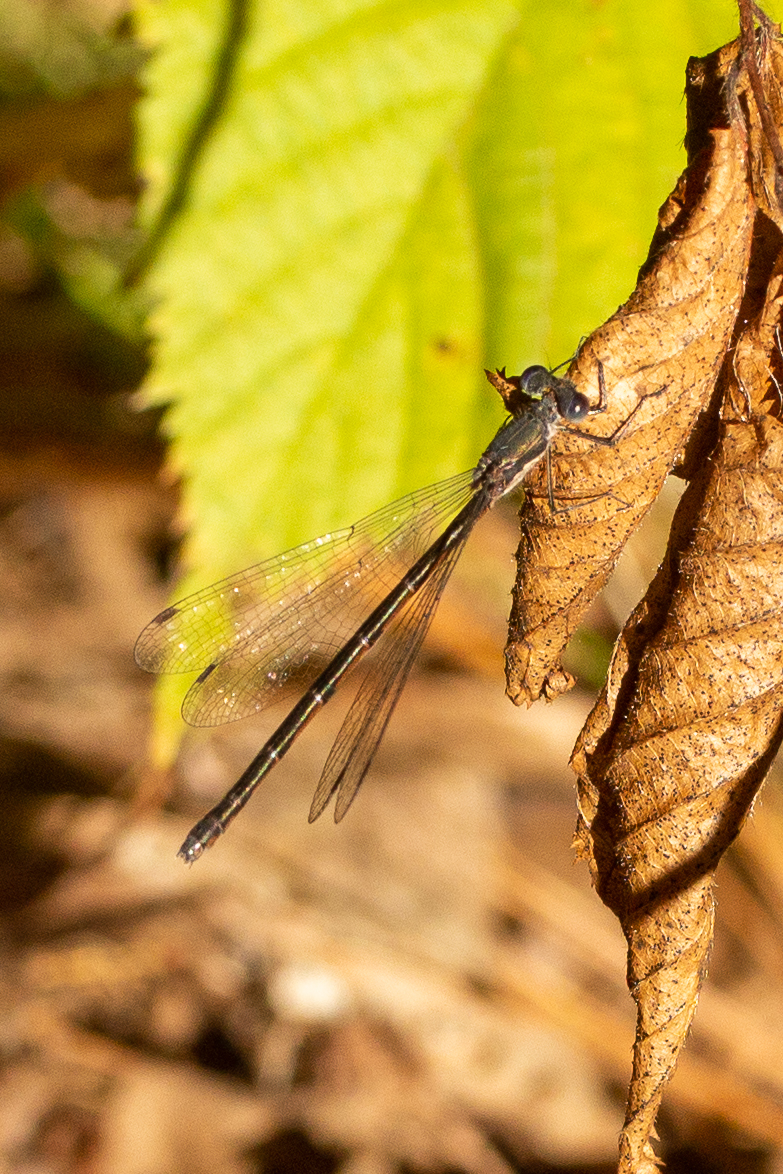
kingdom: Animalia
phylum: Arthropoda
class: Insecta
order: Odonata
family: Lestidae
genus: Lestes
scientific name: Lestes congener
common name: Spotted spreadwing
